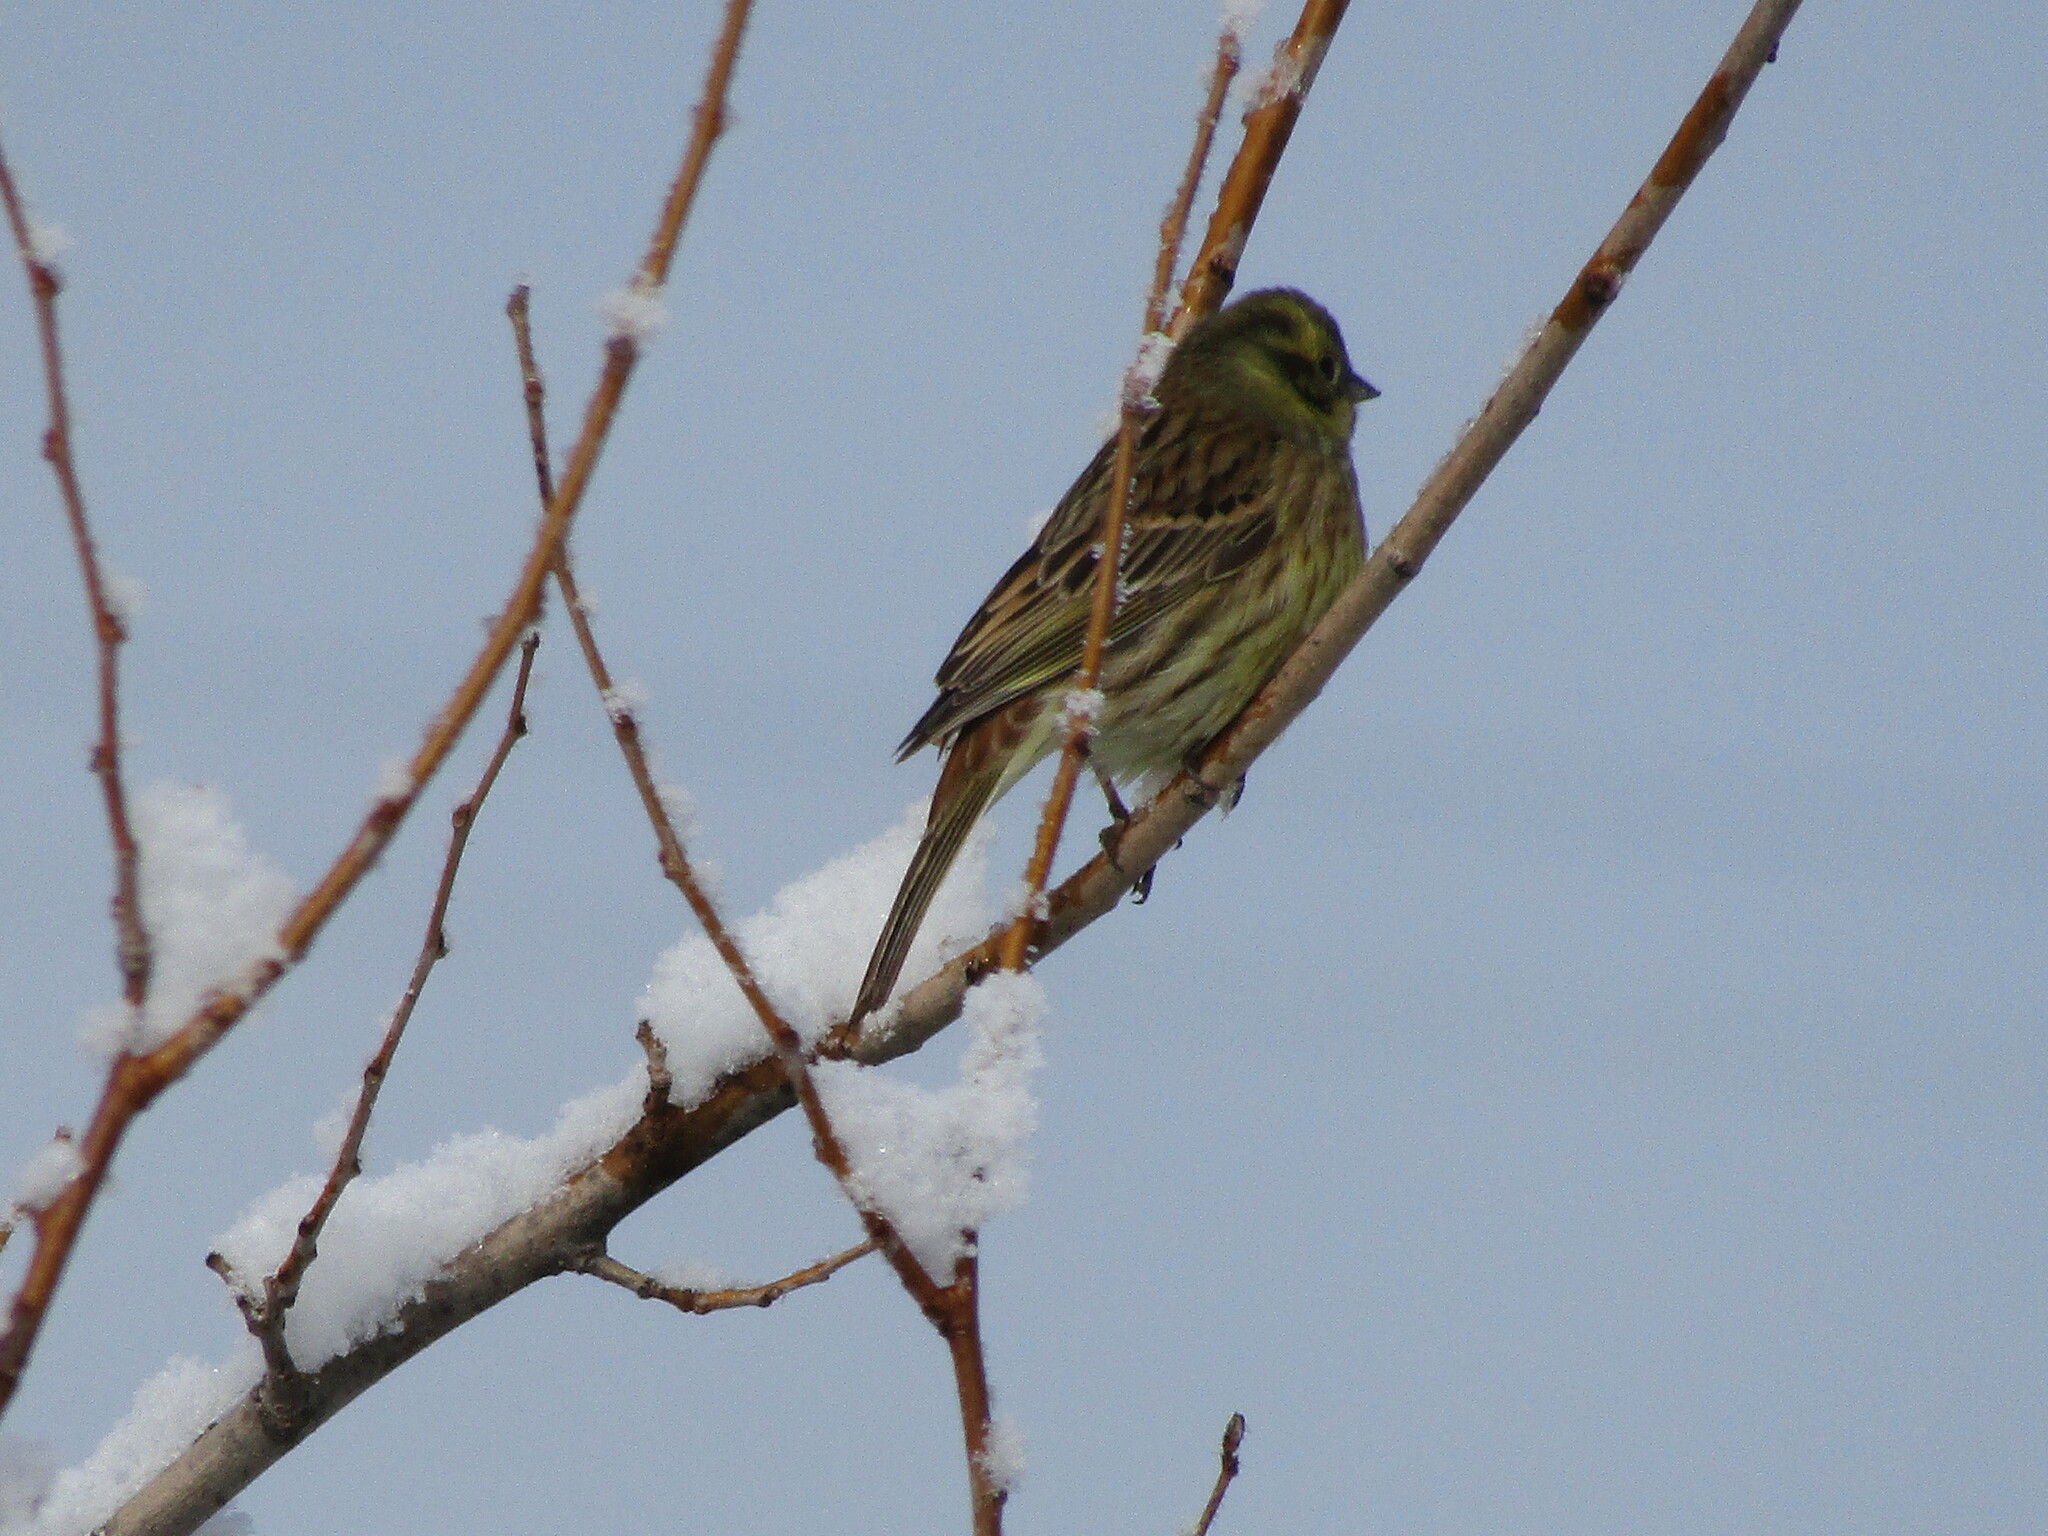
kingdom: Animalia
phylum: Chordata
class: Aves
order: Passeriformes
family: Emberizidae
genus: Emberiza
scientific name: Emberiza citrinella
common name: Yellowhammer
